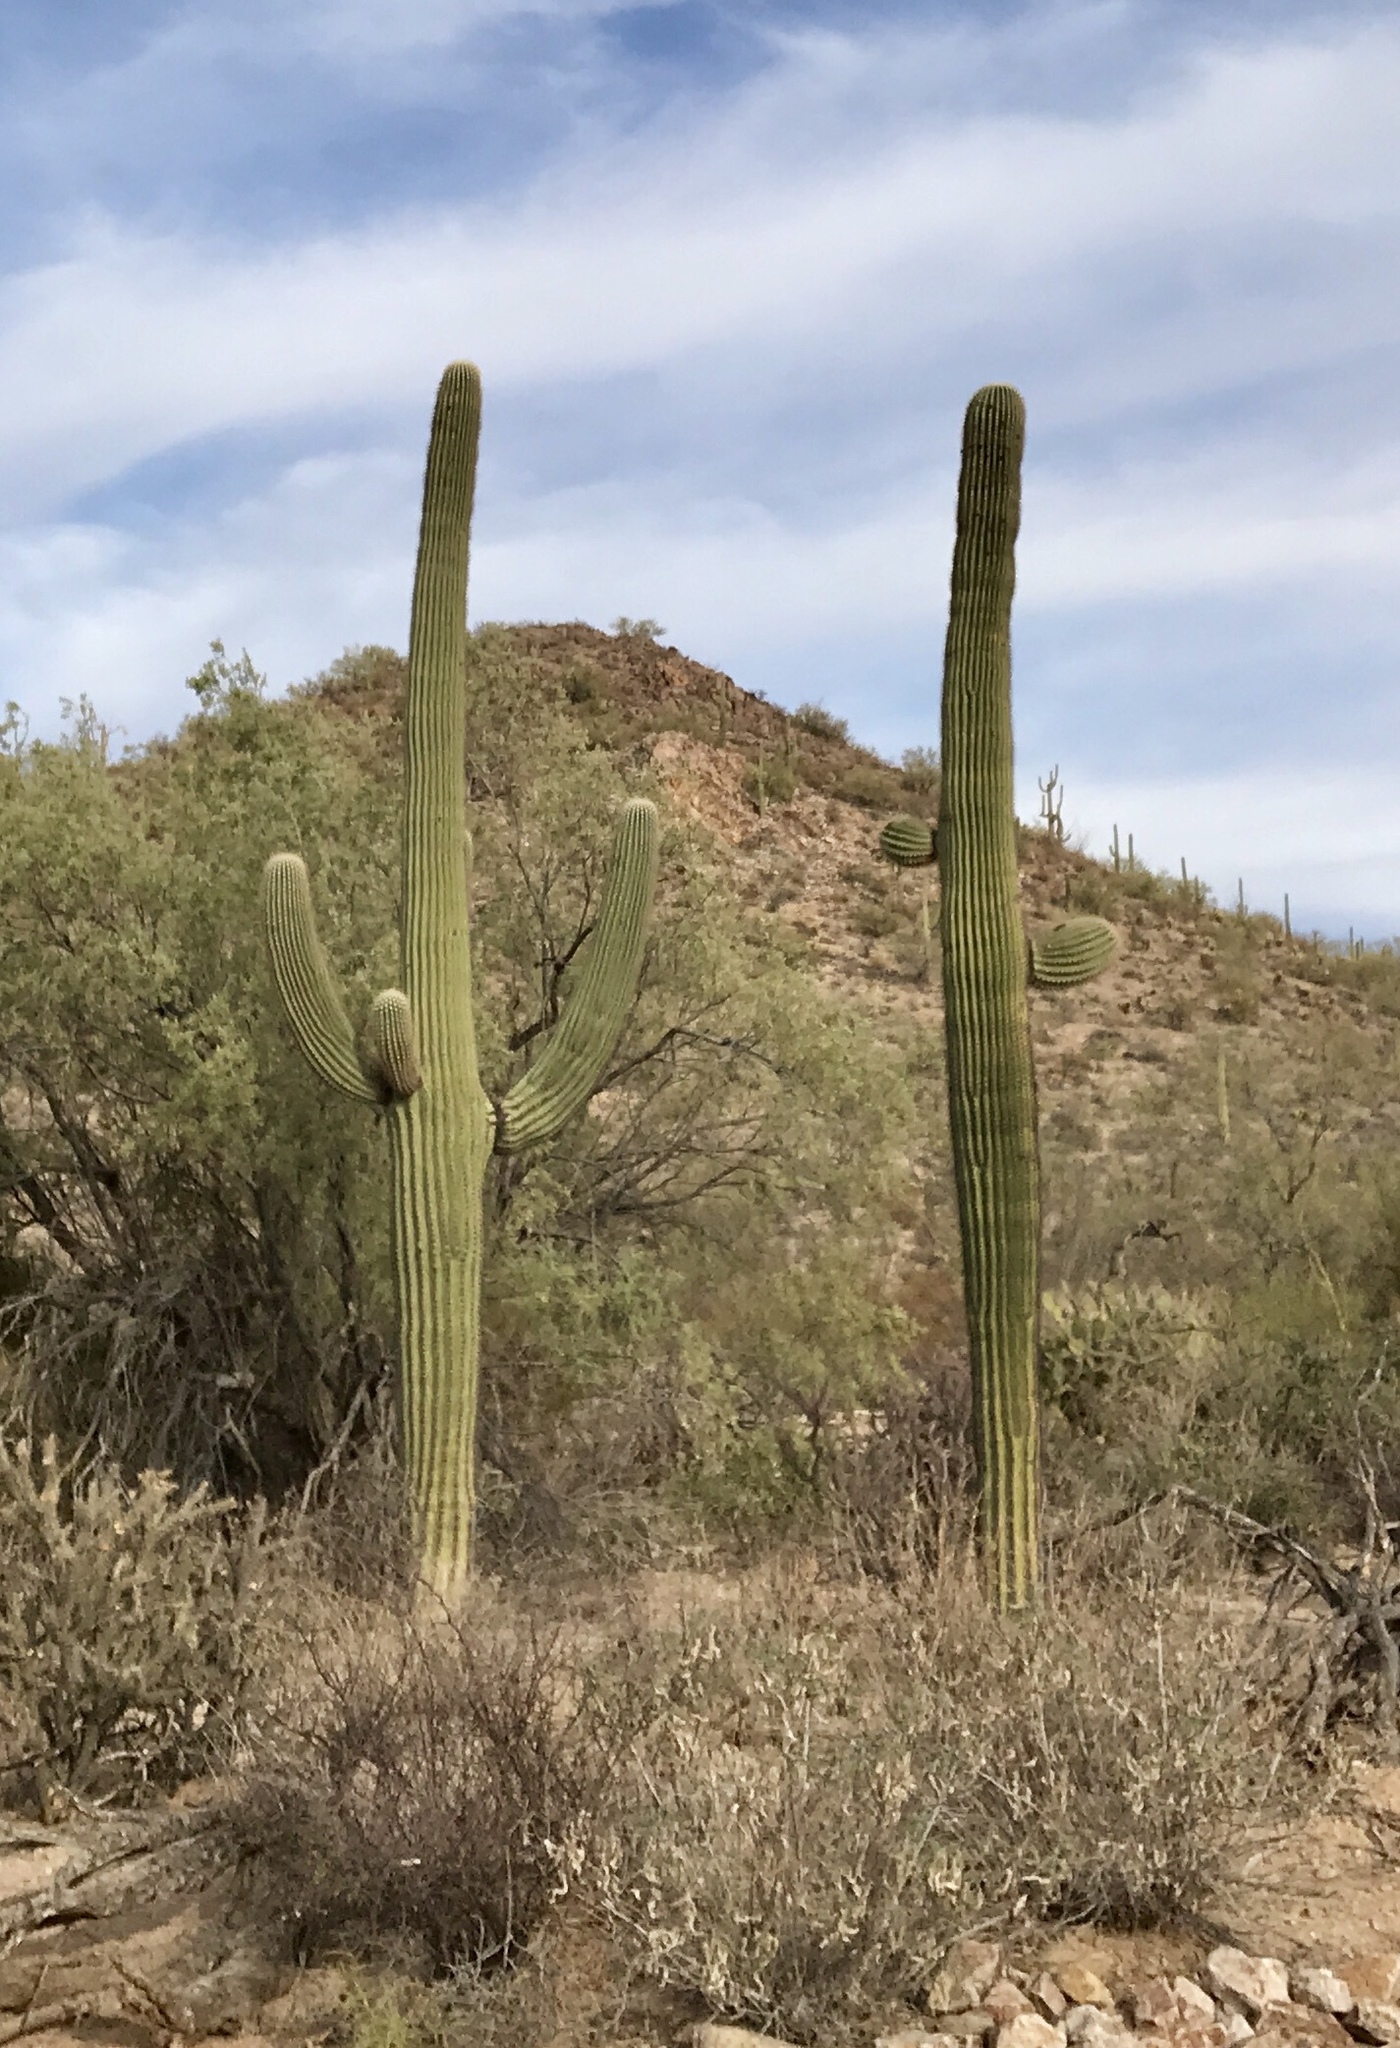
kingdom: Plantae
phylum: Tracheophyta
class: Magnoliopsida
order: Caryophyllales
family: Cactaceae
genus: Carnegiea
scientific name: Carnegiea gigantea
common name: Saguaro
